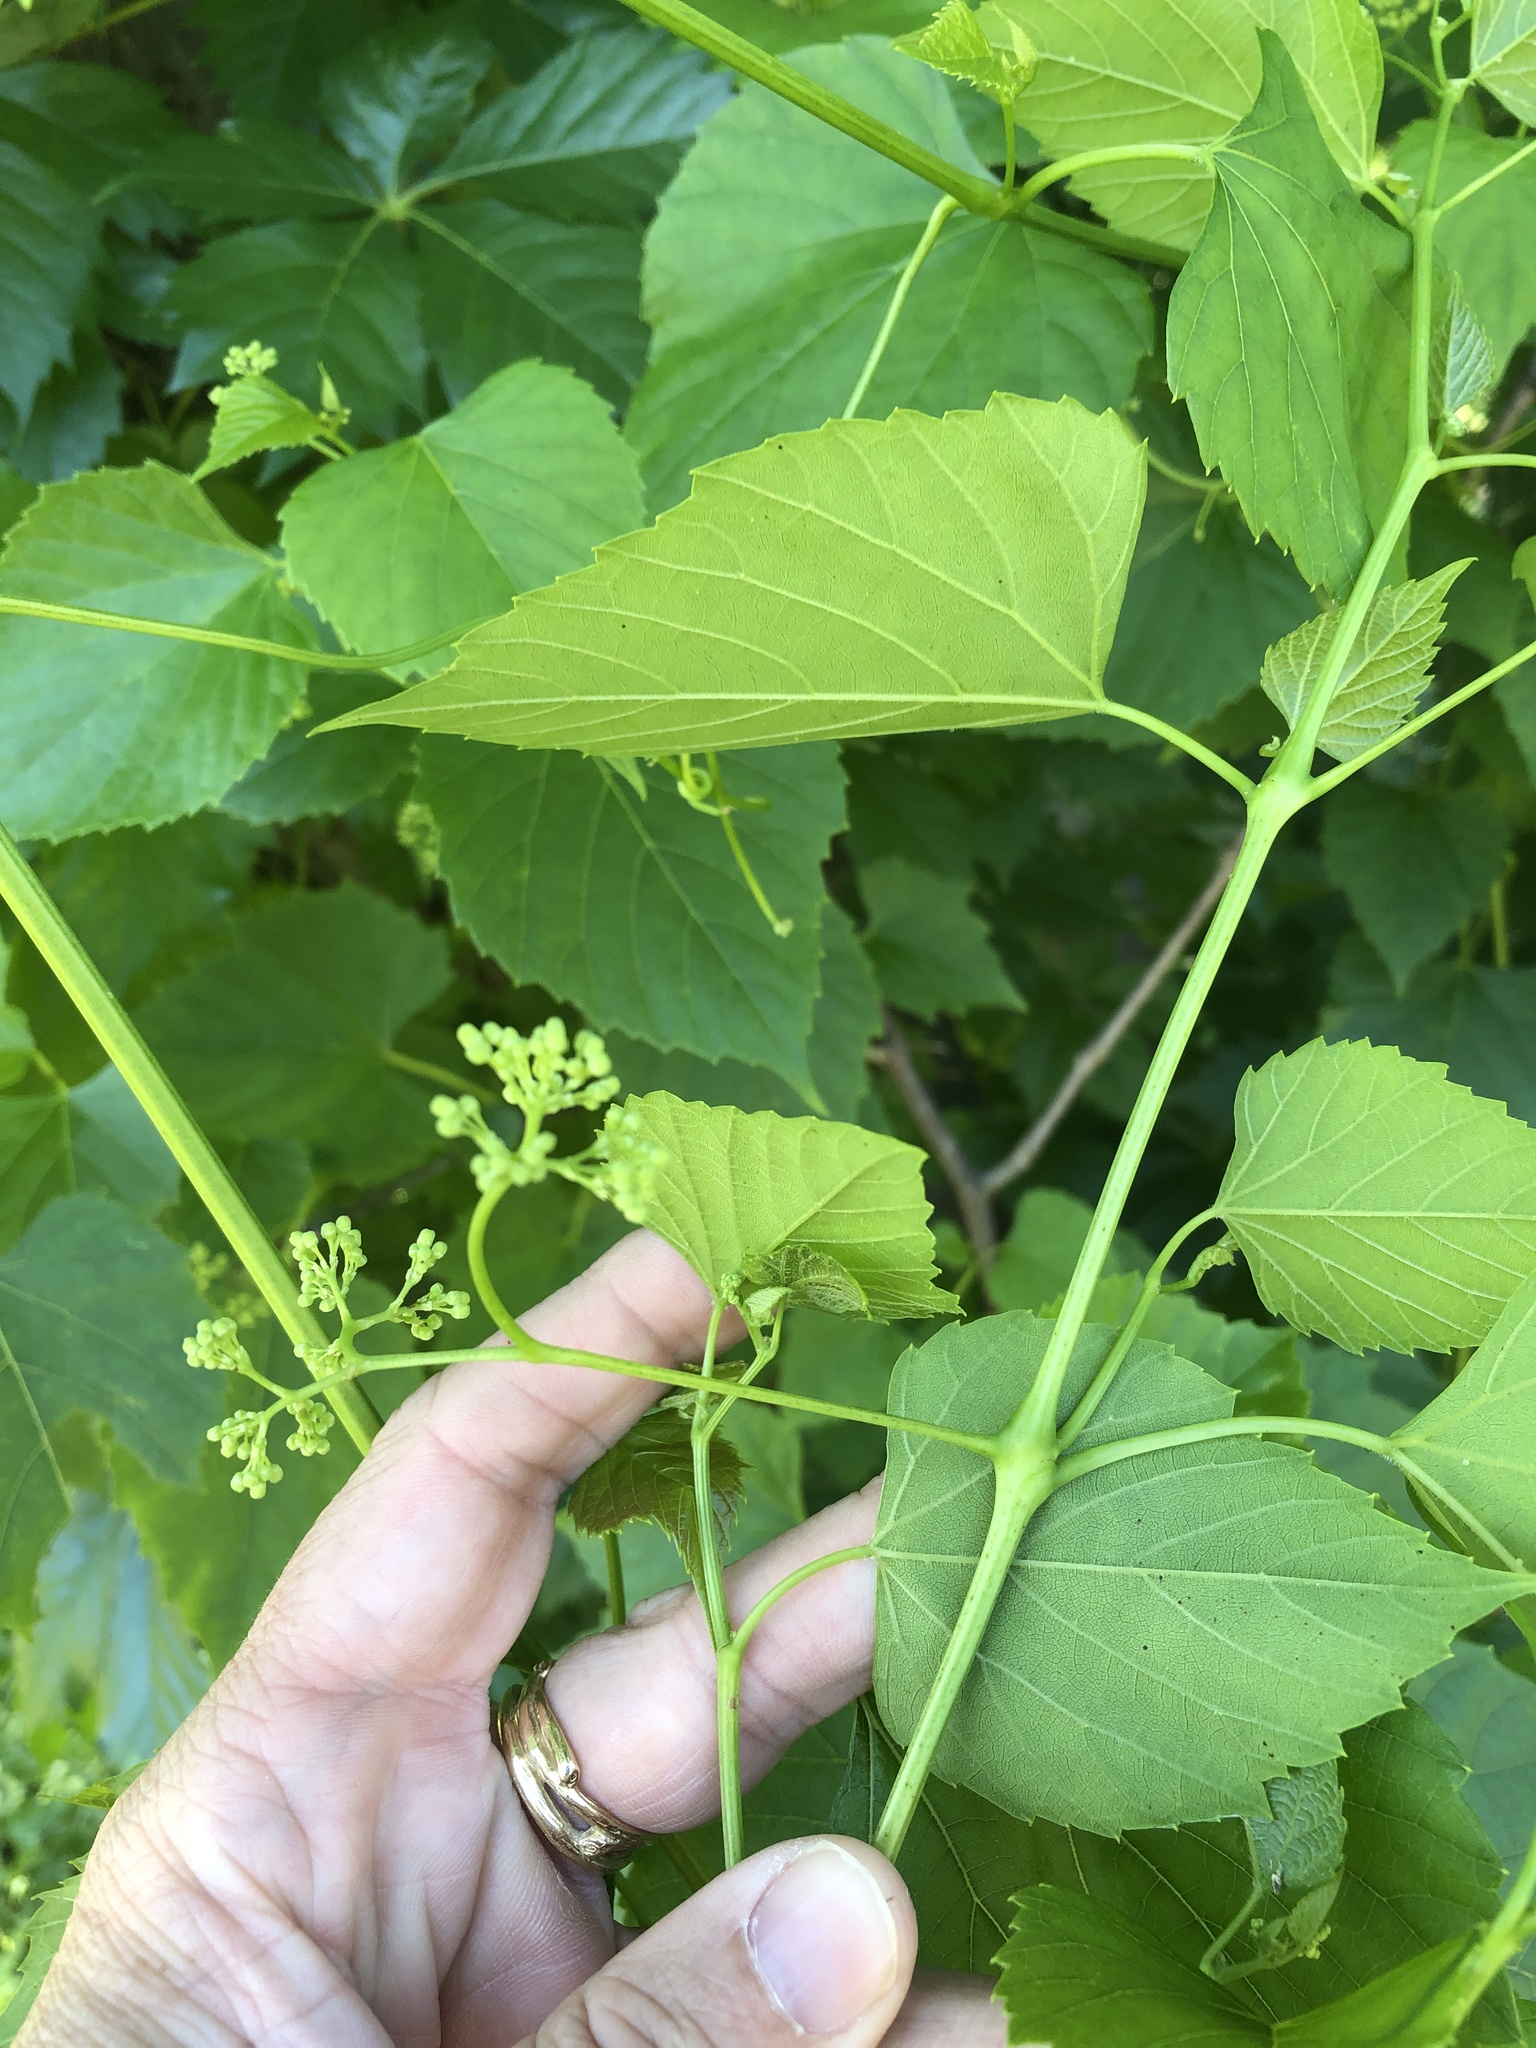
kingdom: Plantae
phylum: Tracheophyta
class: Magnoliopsida
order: Vitales
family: Vitaceae
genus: Ampelopsis
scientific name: Ampelopsis cordata
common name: Heart-leaf ampelopsis
